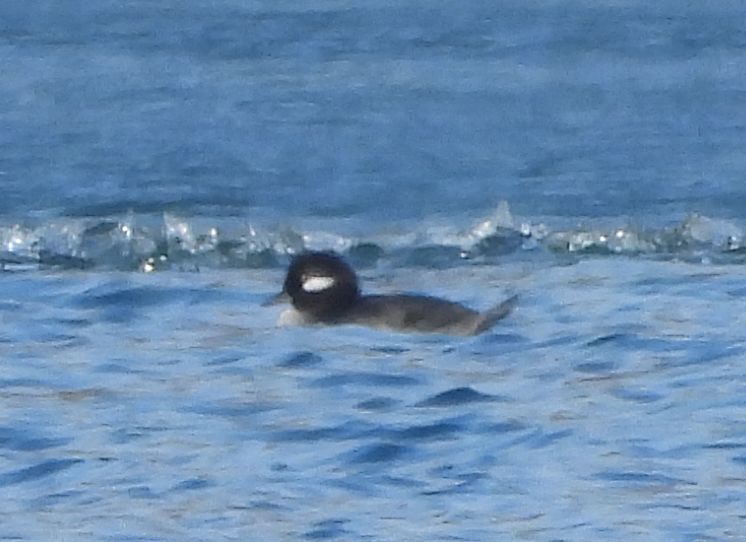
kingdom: Animalia
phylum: Chordata
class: Aves
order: Anseriformes
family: Anatidae
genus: Bucephala
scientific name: Bucephala albeola
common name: Bufflehead
